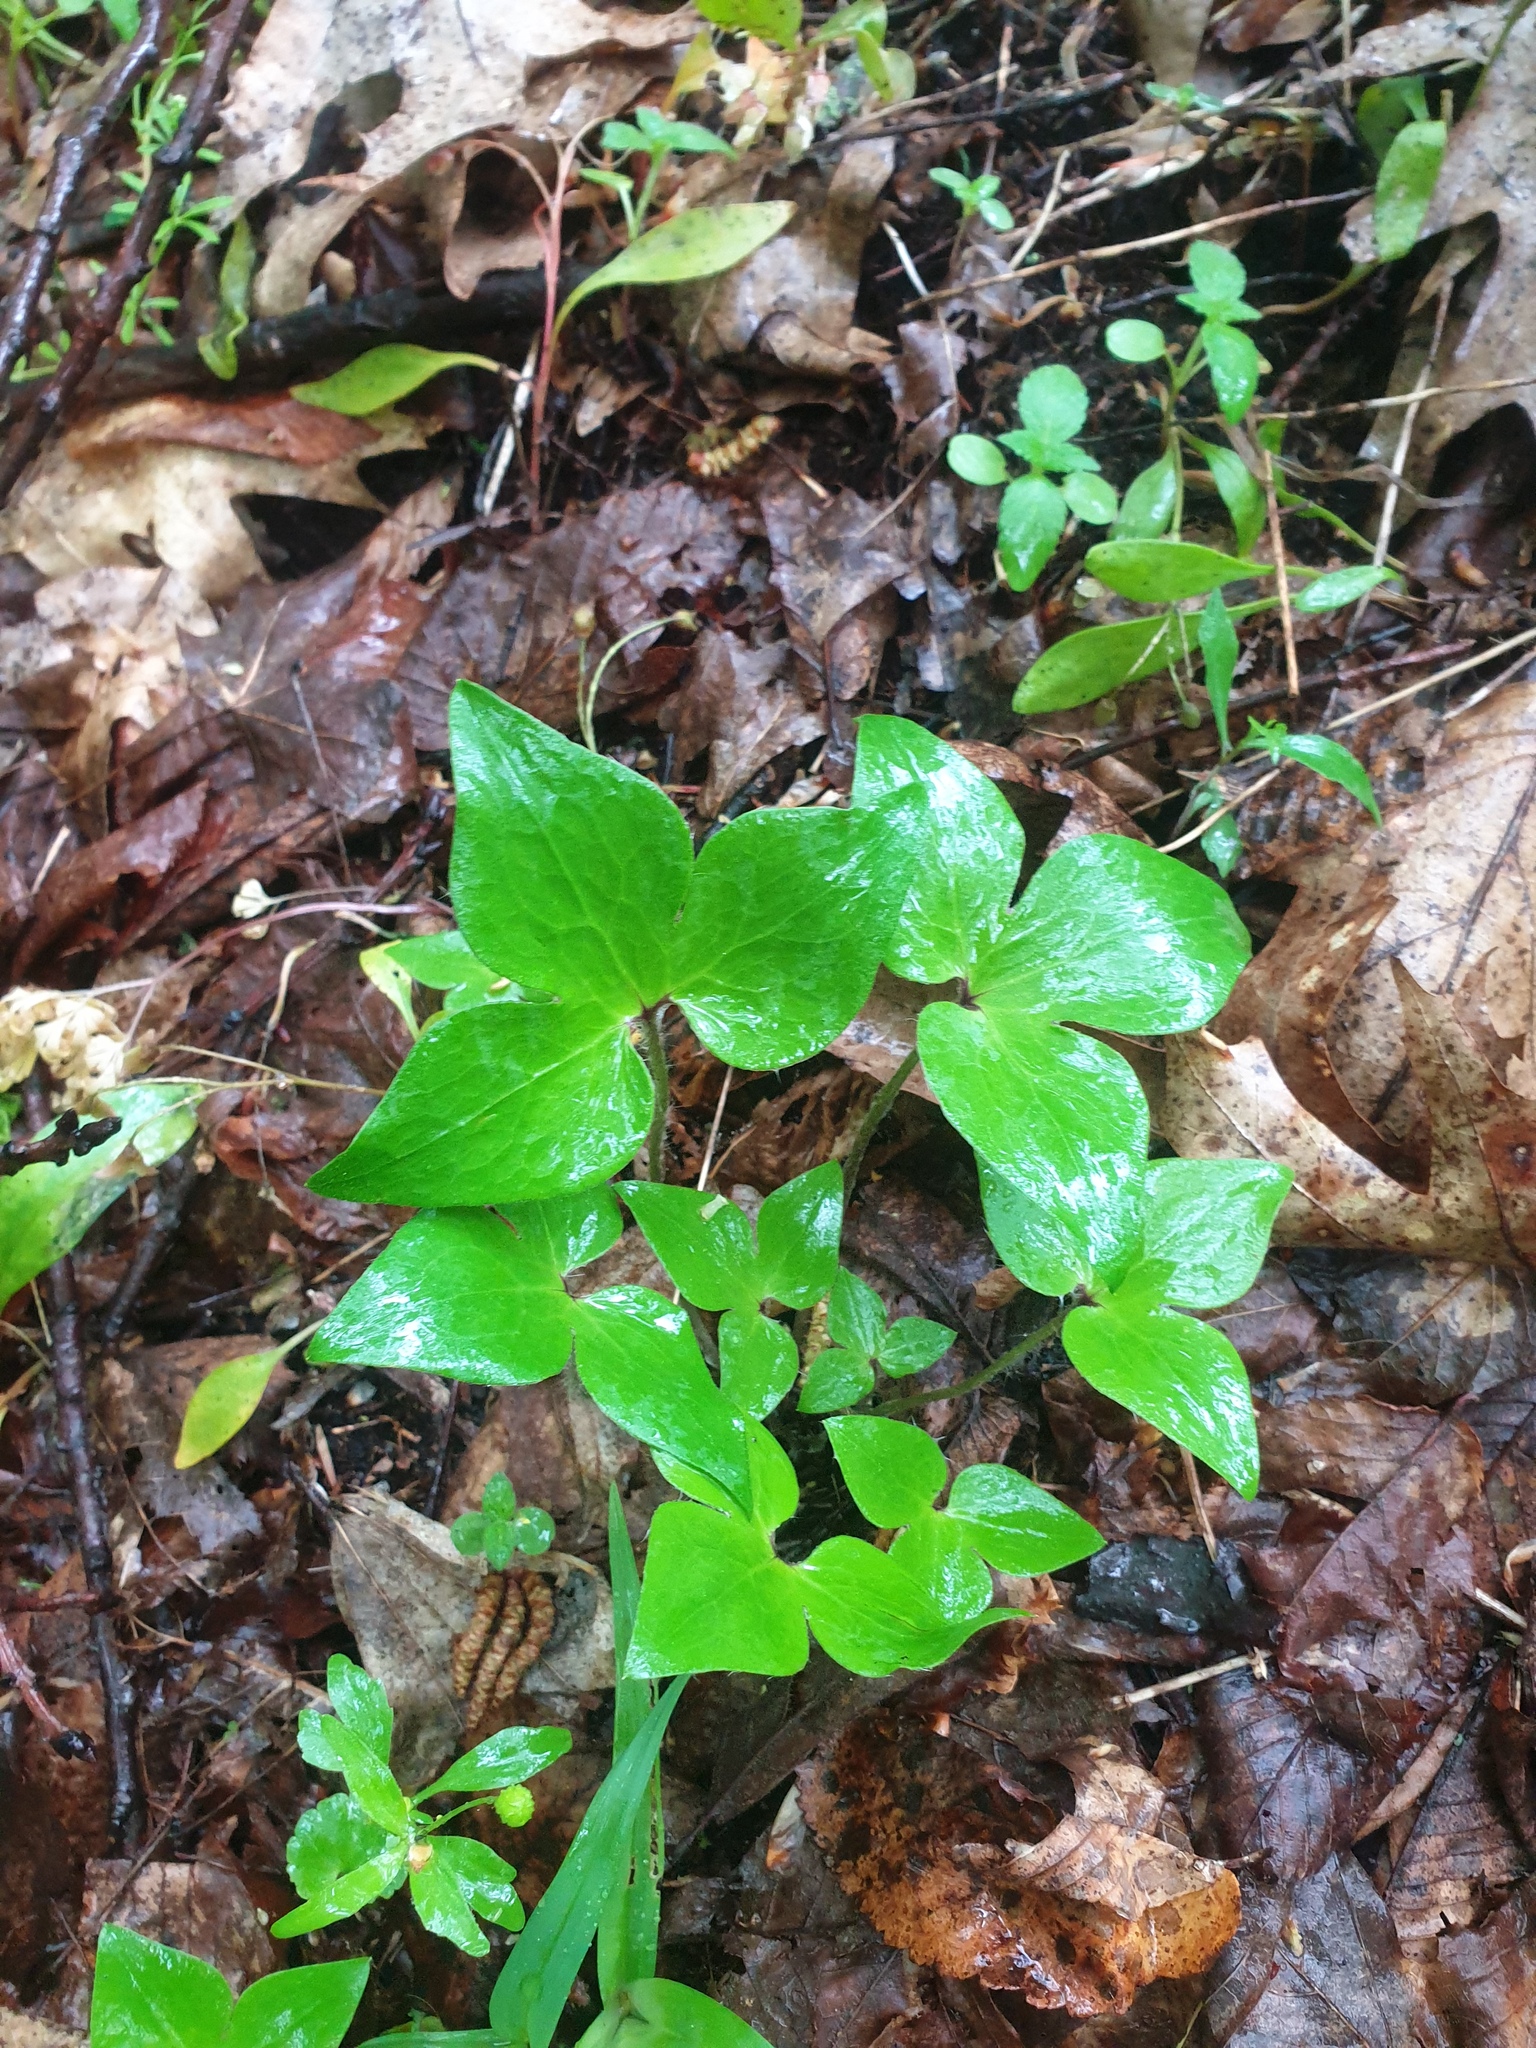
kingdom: Plantae
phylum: Tracheophyta
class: Magnoliopsida
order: Ranunculales
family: Ranunculaceae
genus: Hepatica
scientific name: Hepatica acutiloba
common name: Sharp-lobed hepatica
